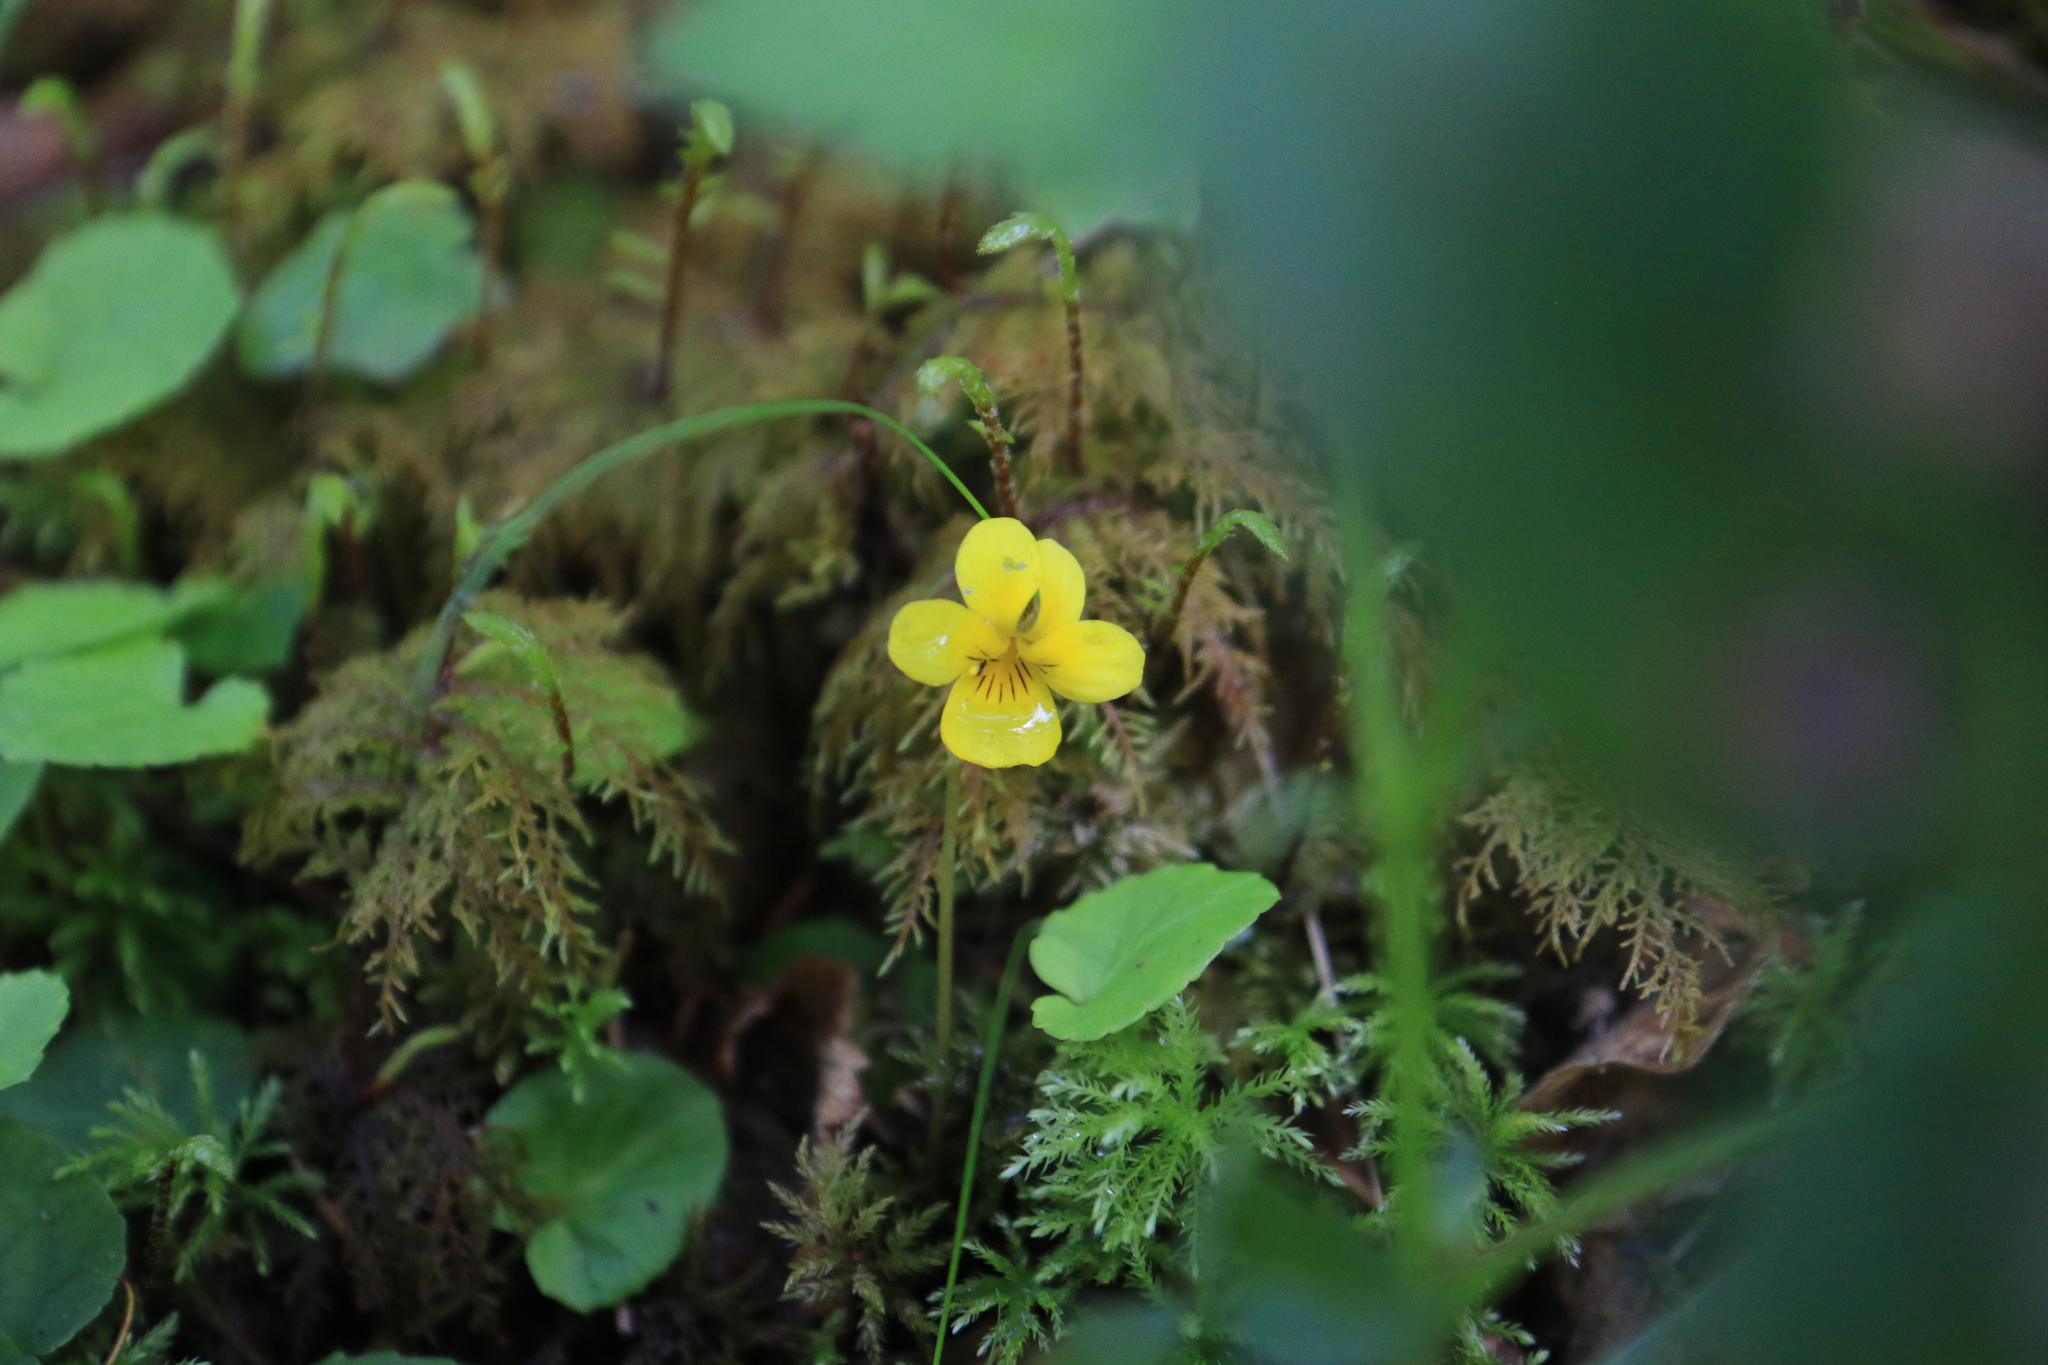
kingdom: Plantae
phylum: Tracheophyta
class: Magnoliopsida
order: Malpighiales
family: Violaceae
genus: Viola
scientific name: Viola sempervirens
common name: Evergreen violet
